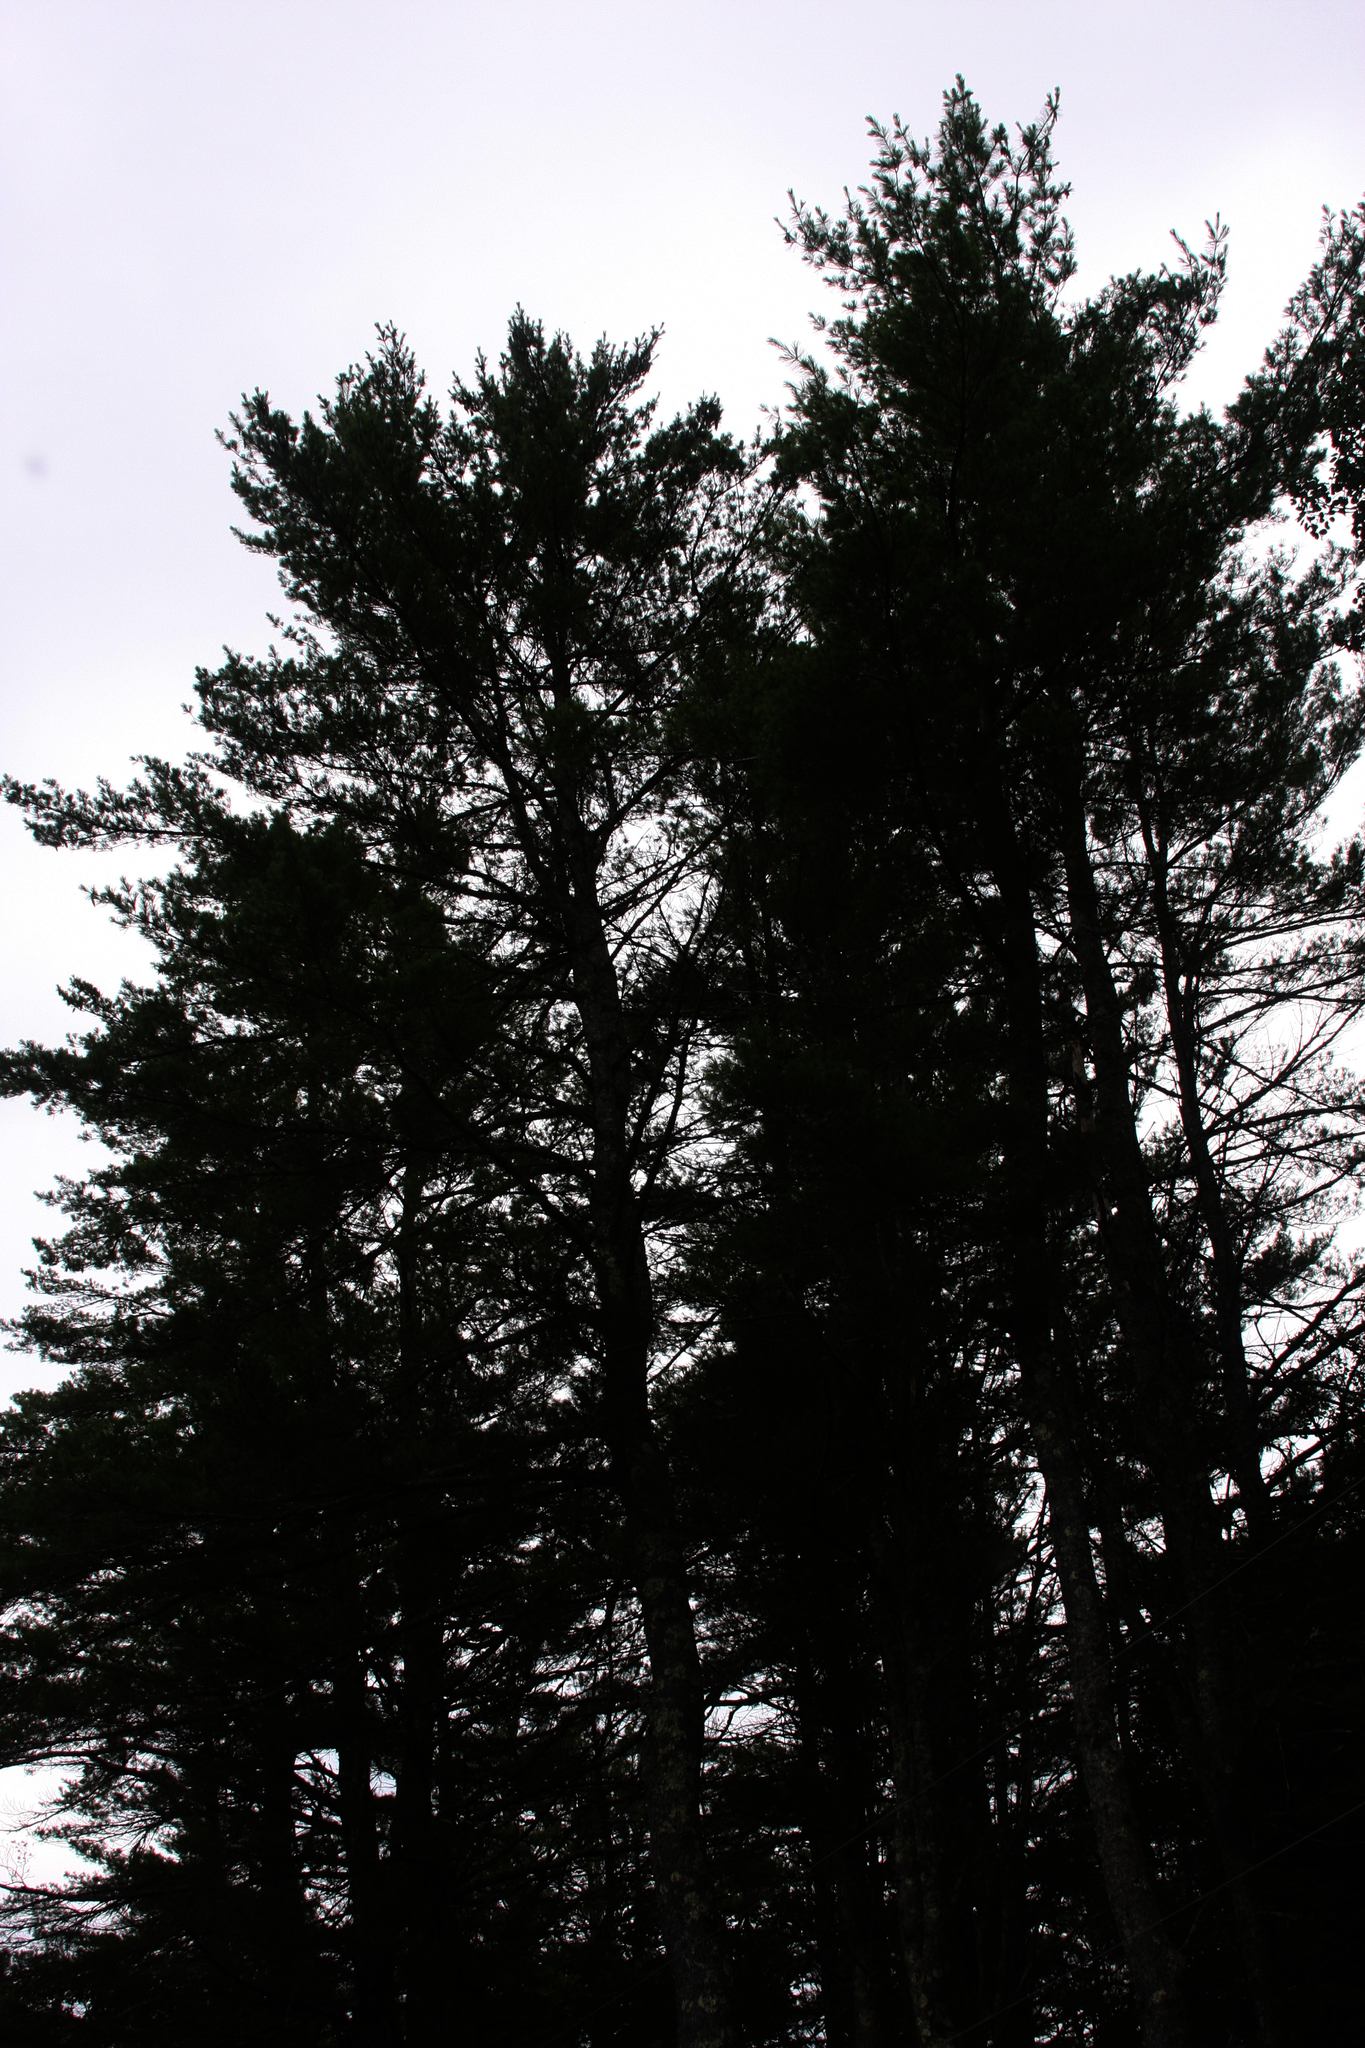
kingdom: Plantae
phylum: Tracheophyta
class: Pinopsida
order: Pinales
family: Pinaceae
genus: Pinus
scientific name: Pinus strobus
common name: Weymouth pine
